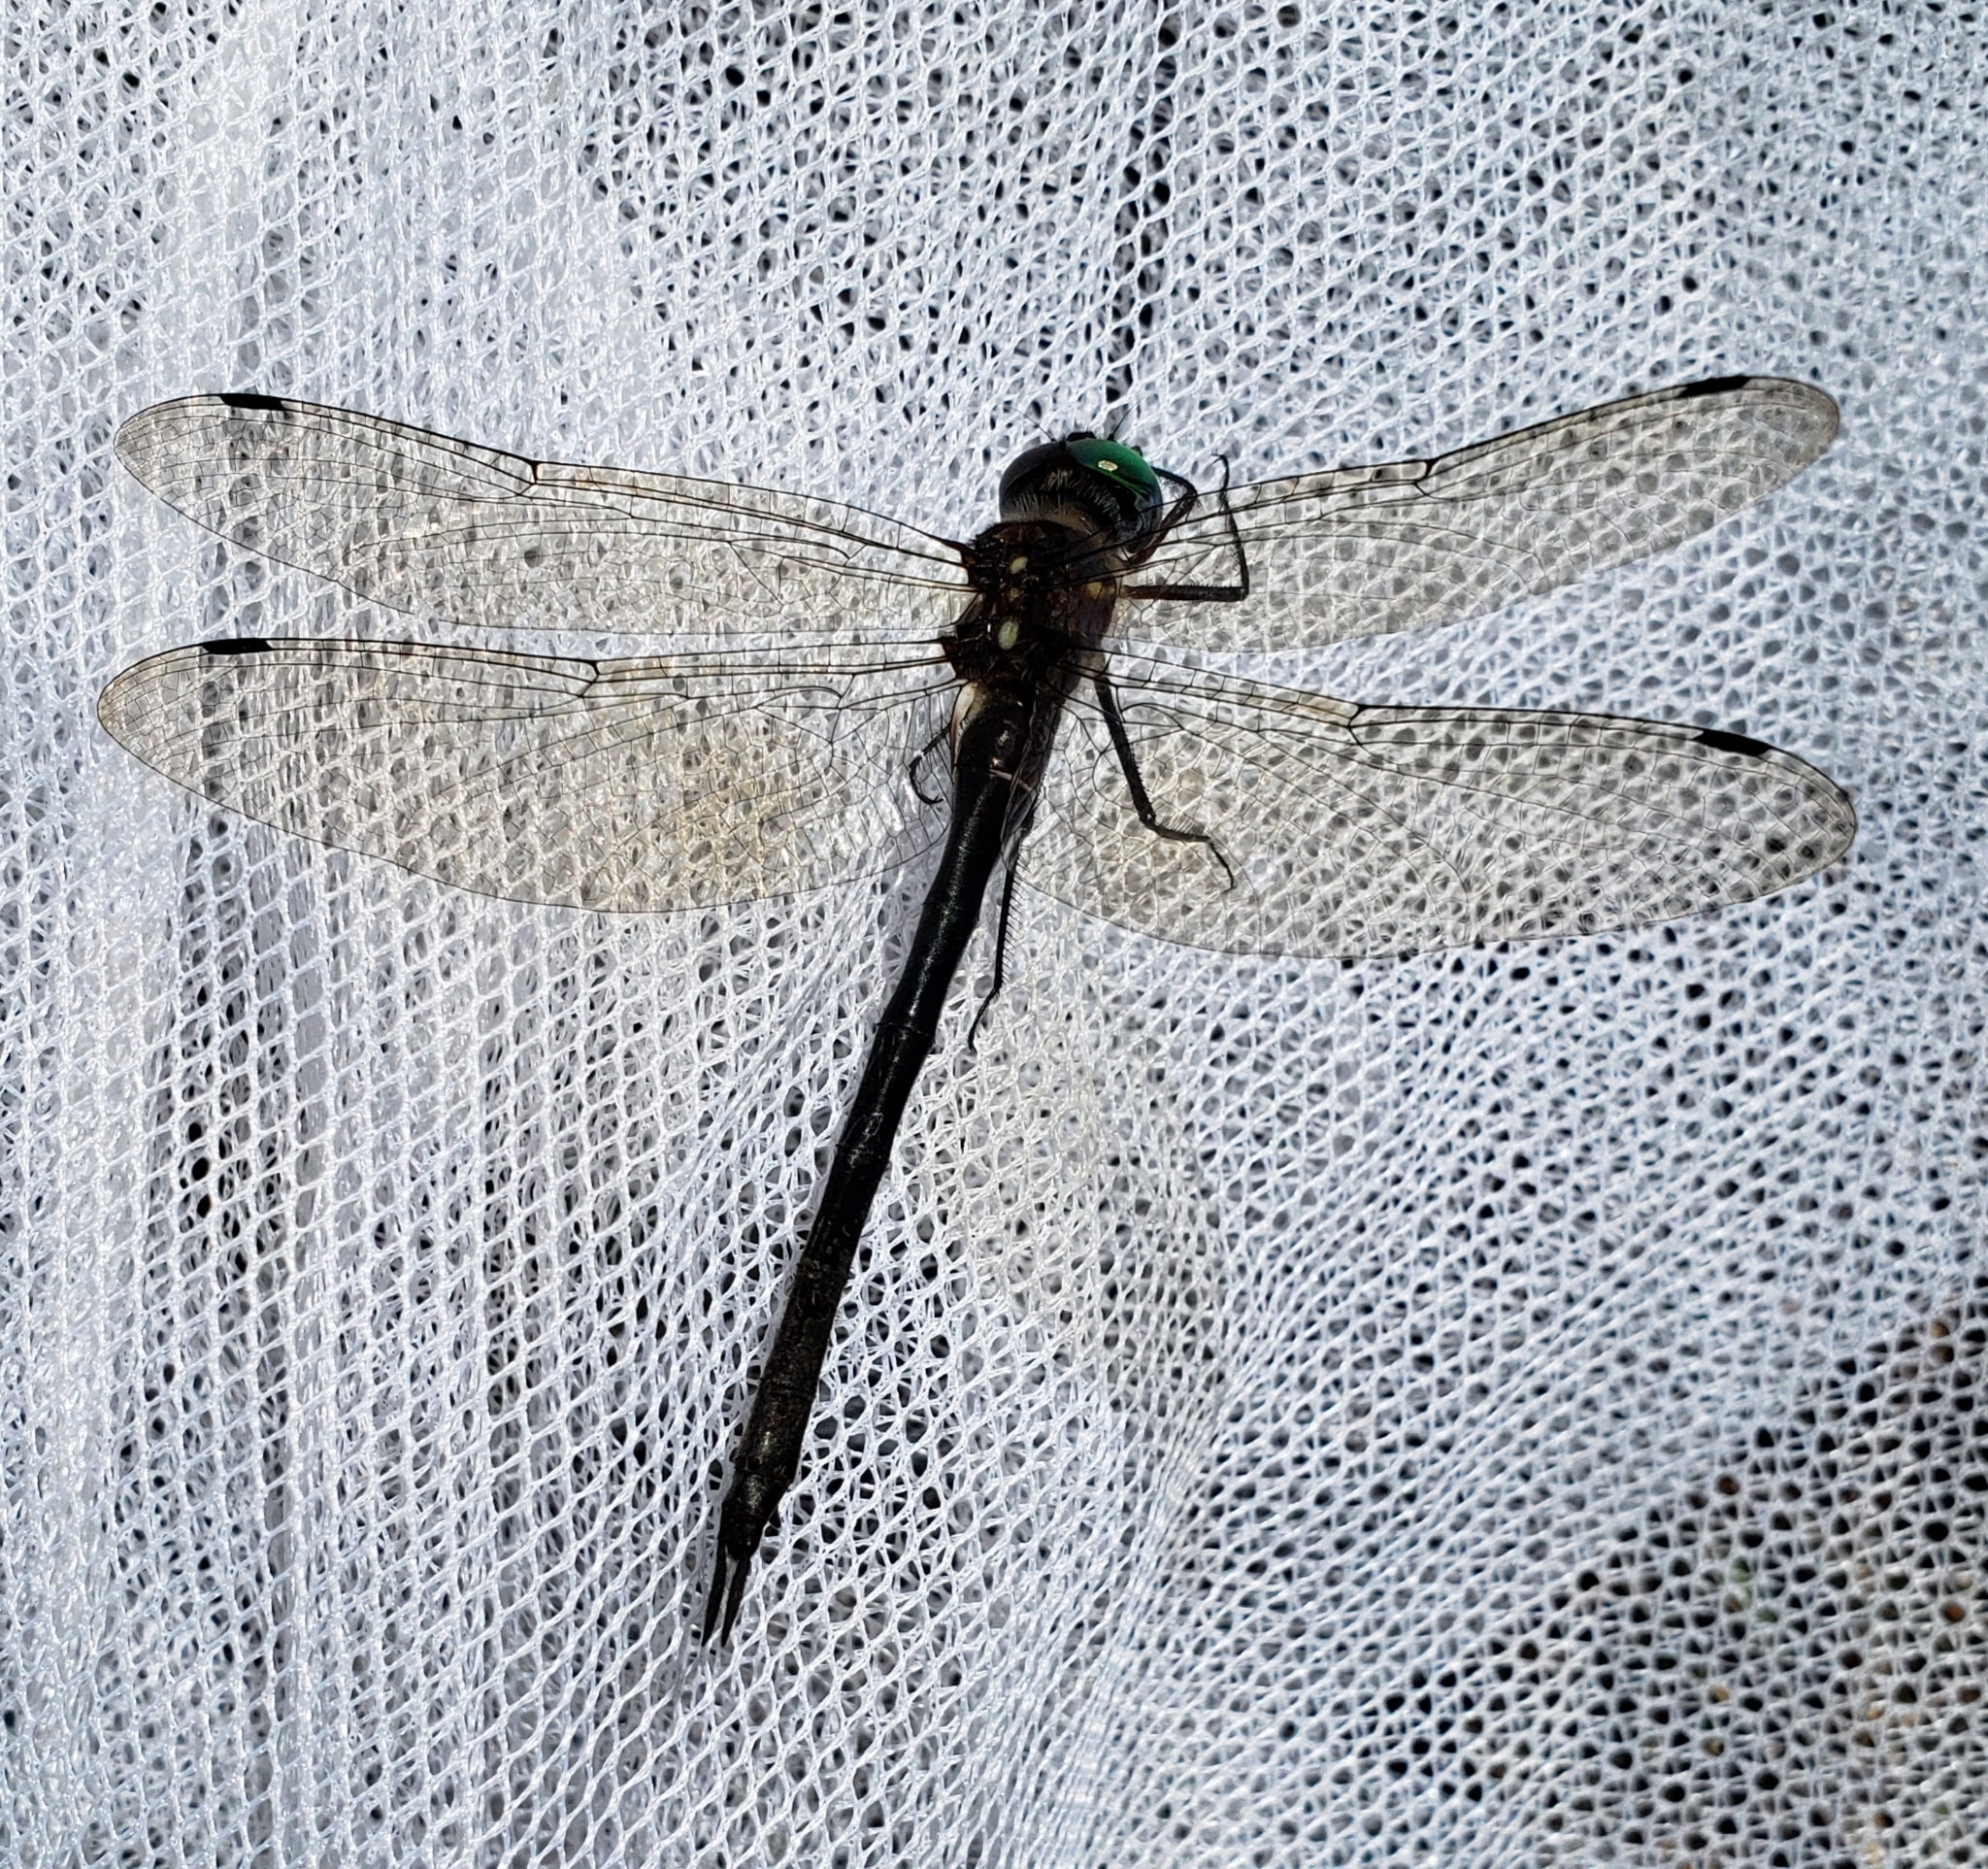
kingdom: Animalia
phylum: Arthropoda
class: Insecta
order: Odonata
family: Corduliidae
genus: Somatochlora
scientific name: Somatochlora tenebrosa
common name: Clamp-tipped emerald
